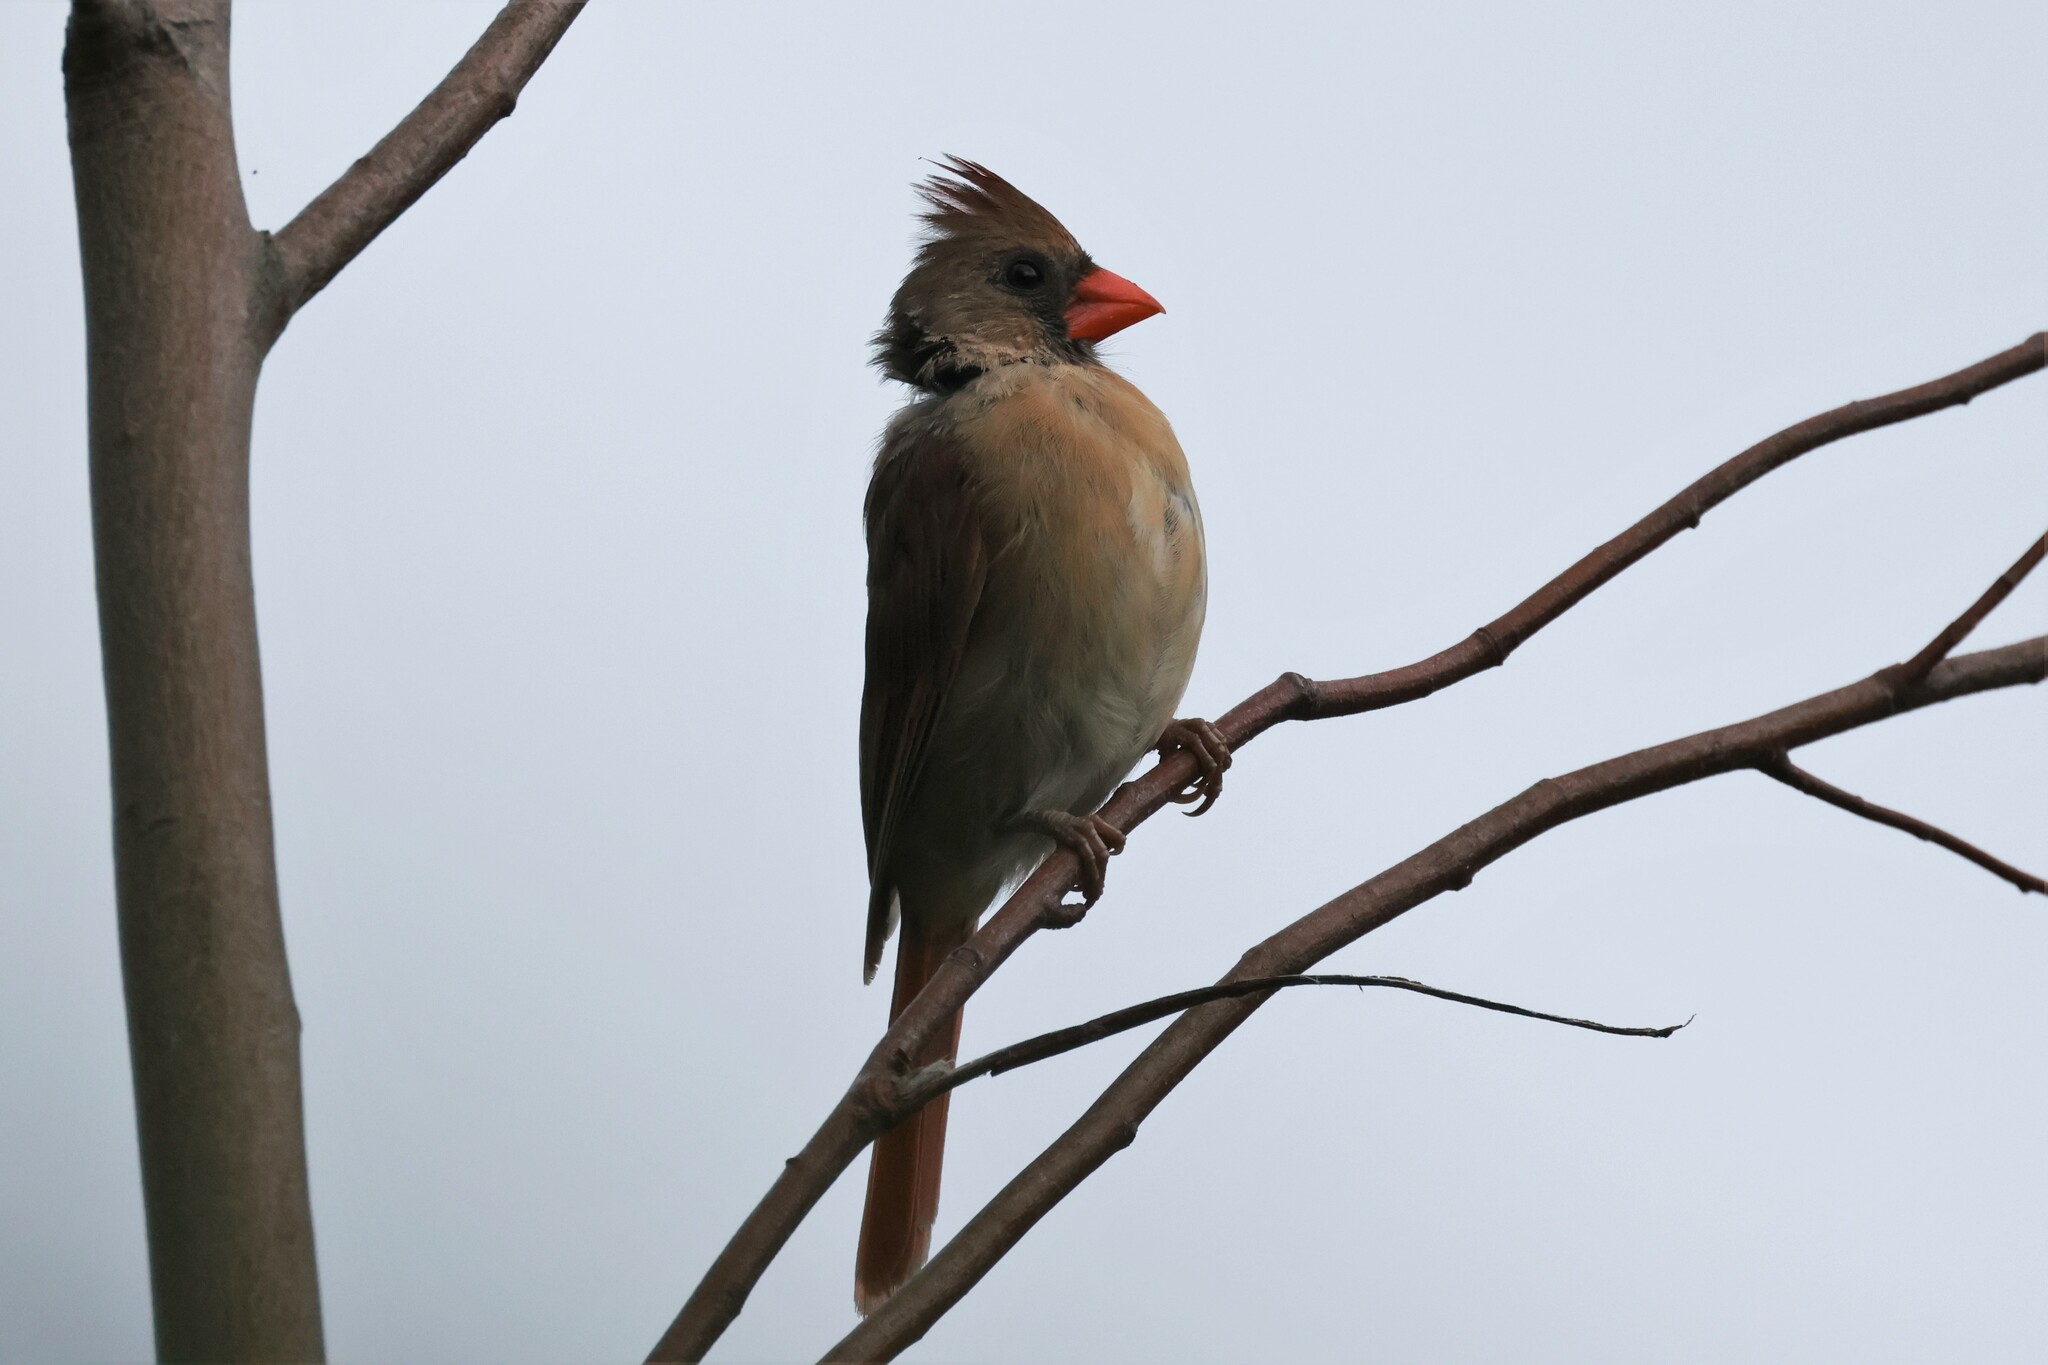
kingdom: Animalia
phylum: Chordata
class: Aves
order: Passeriformes
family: Cardinalidae
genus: Cardinalis
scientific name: Cardinalis cardinalis
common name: Northern cardinal
